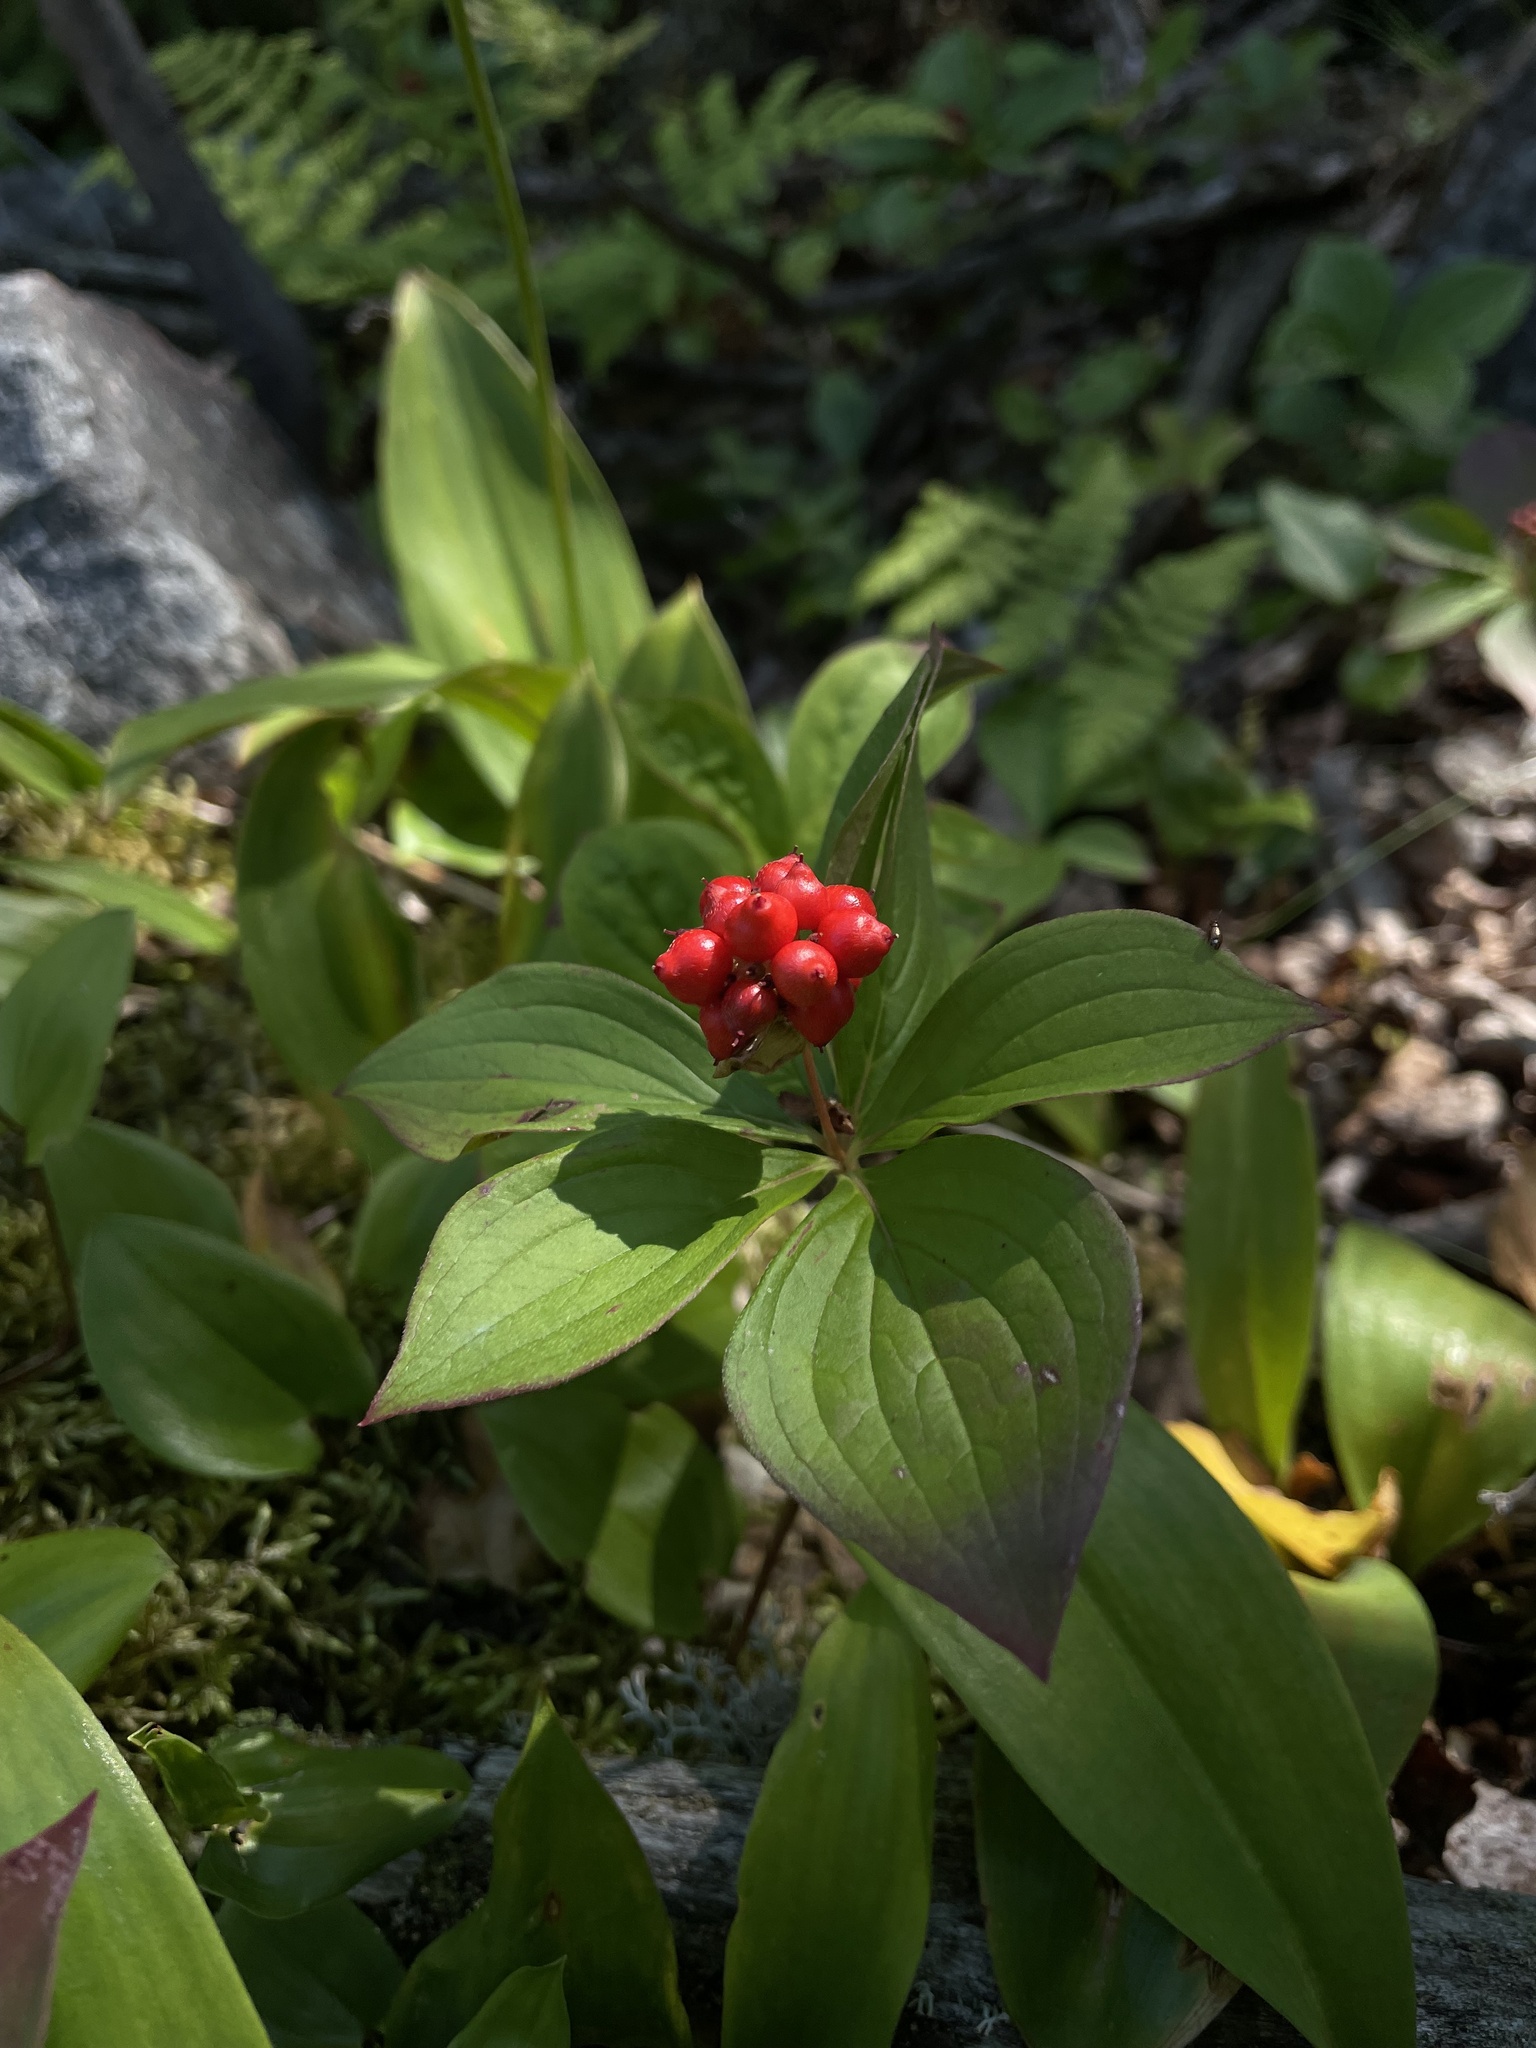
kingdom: Plantae
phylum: Tracheophyta
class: Magnoliopsida
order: Cornales
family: Cornaceae
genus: Cornus
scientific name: Cornus canadensis
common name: Creeping dogwood
